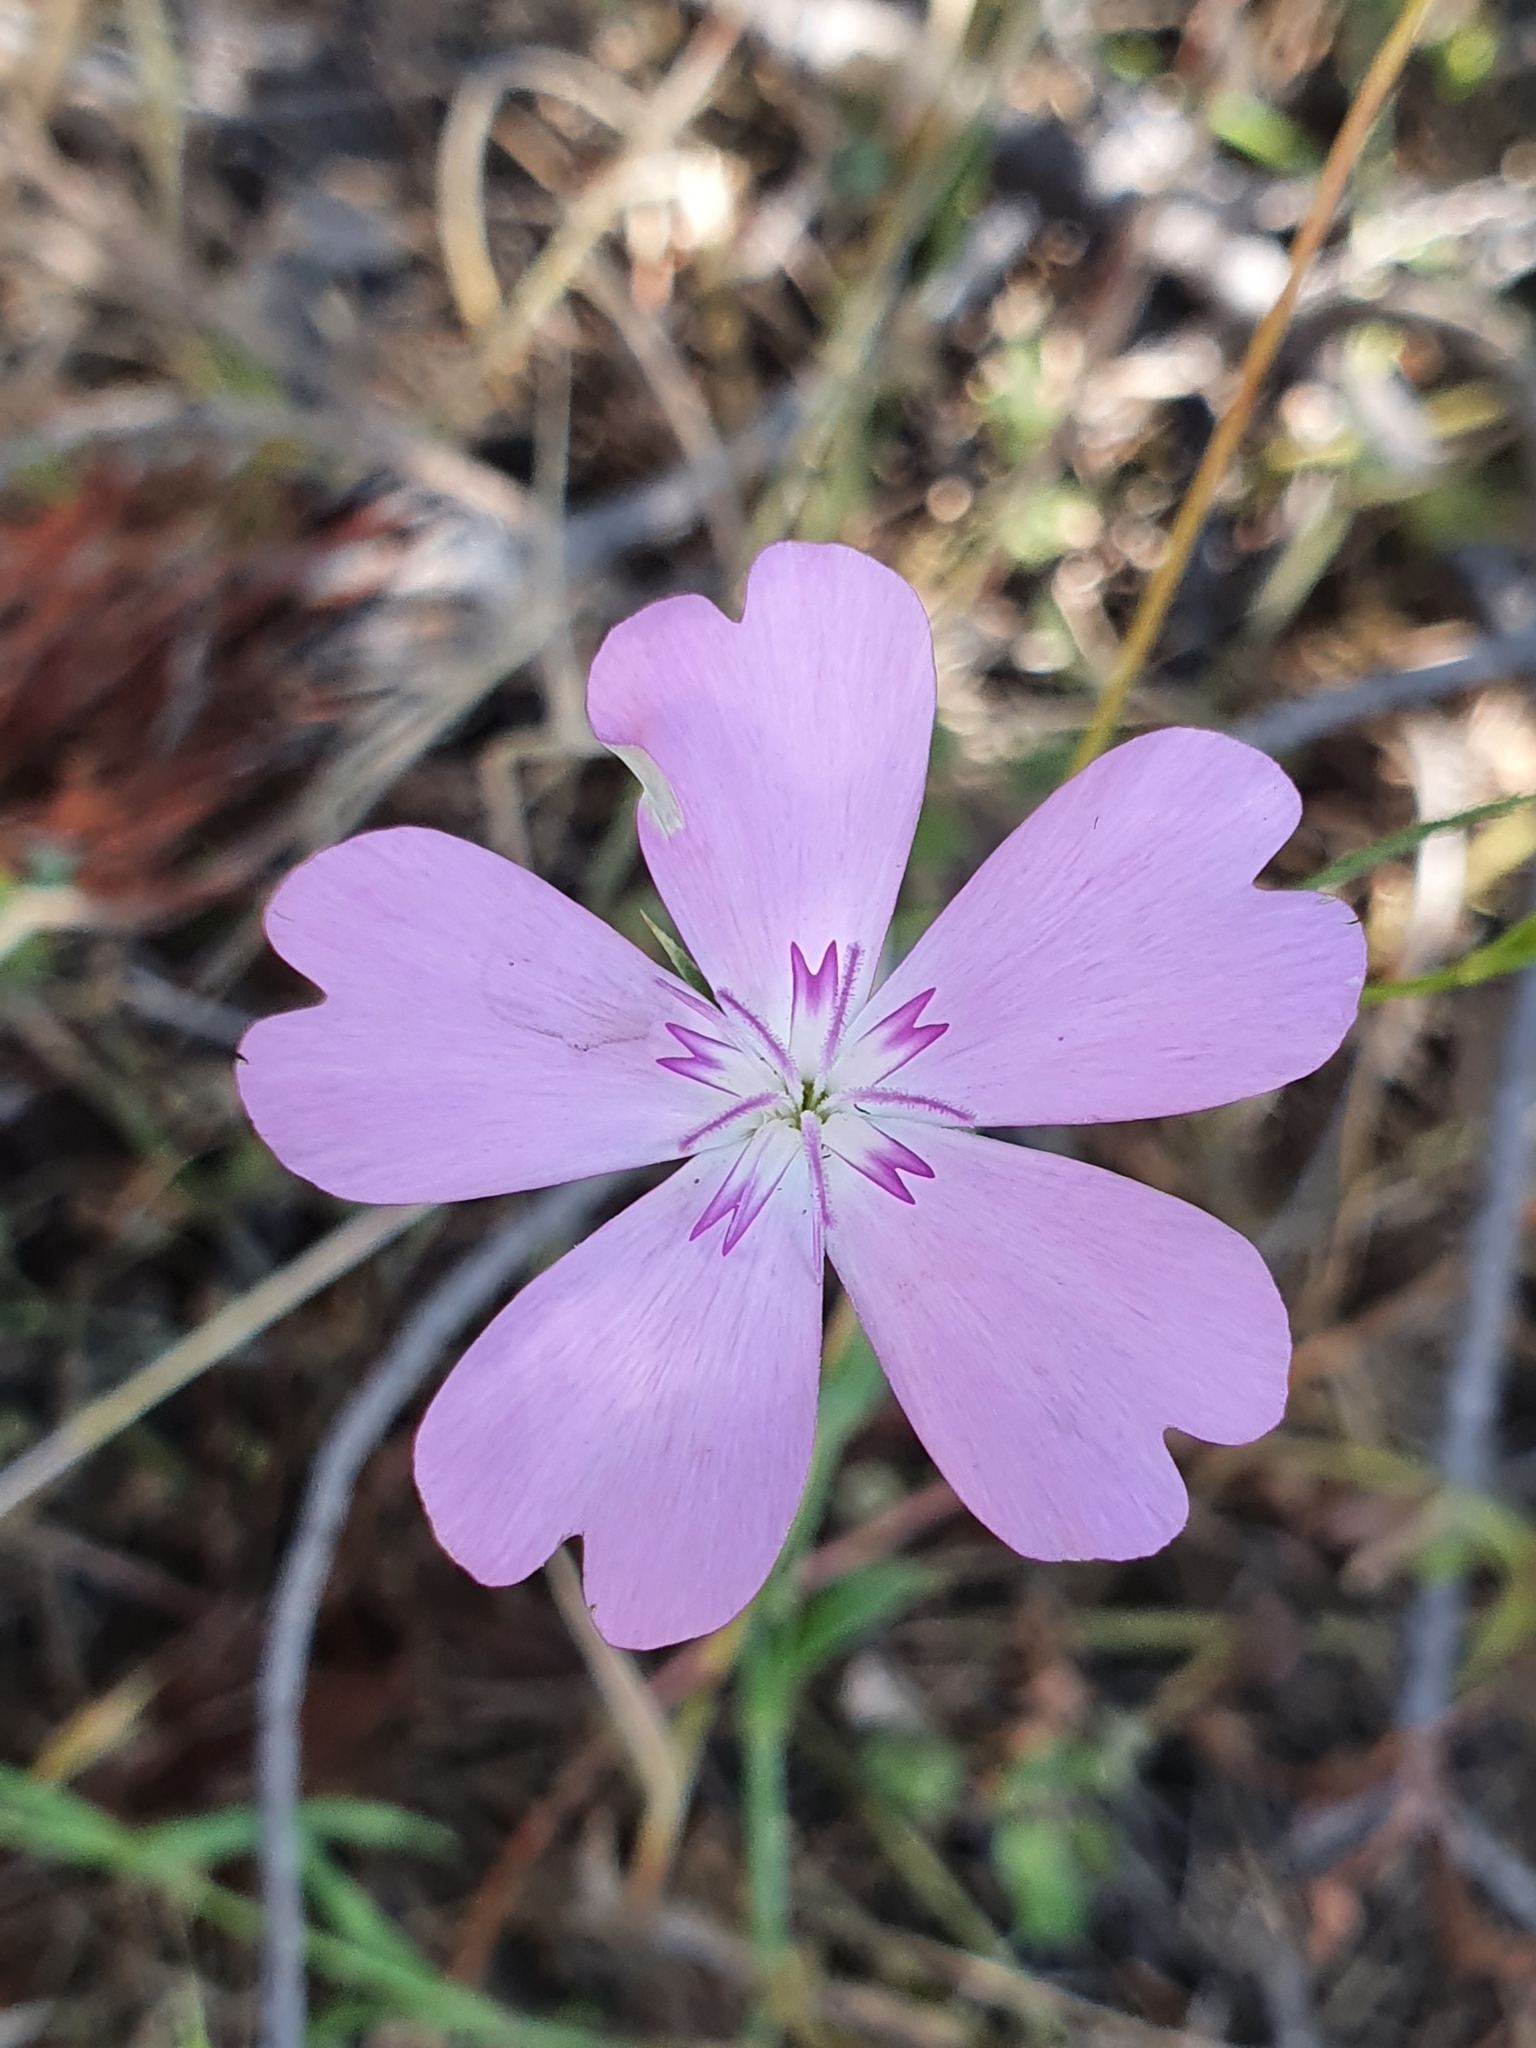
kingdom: Plantae
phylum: Tracheophyta
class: Magnoliopsida
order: Caryophyllales
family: Caryophyllaceae
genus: Eudianthe
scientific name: Eudianthe coeli-rosa
